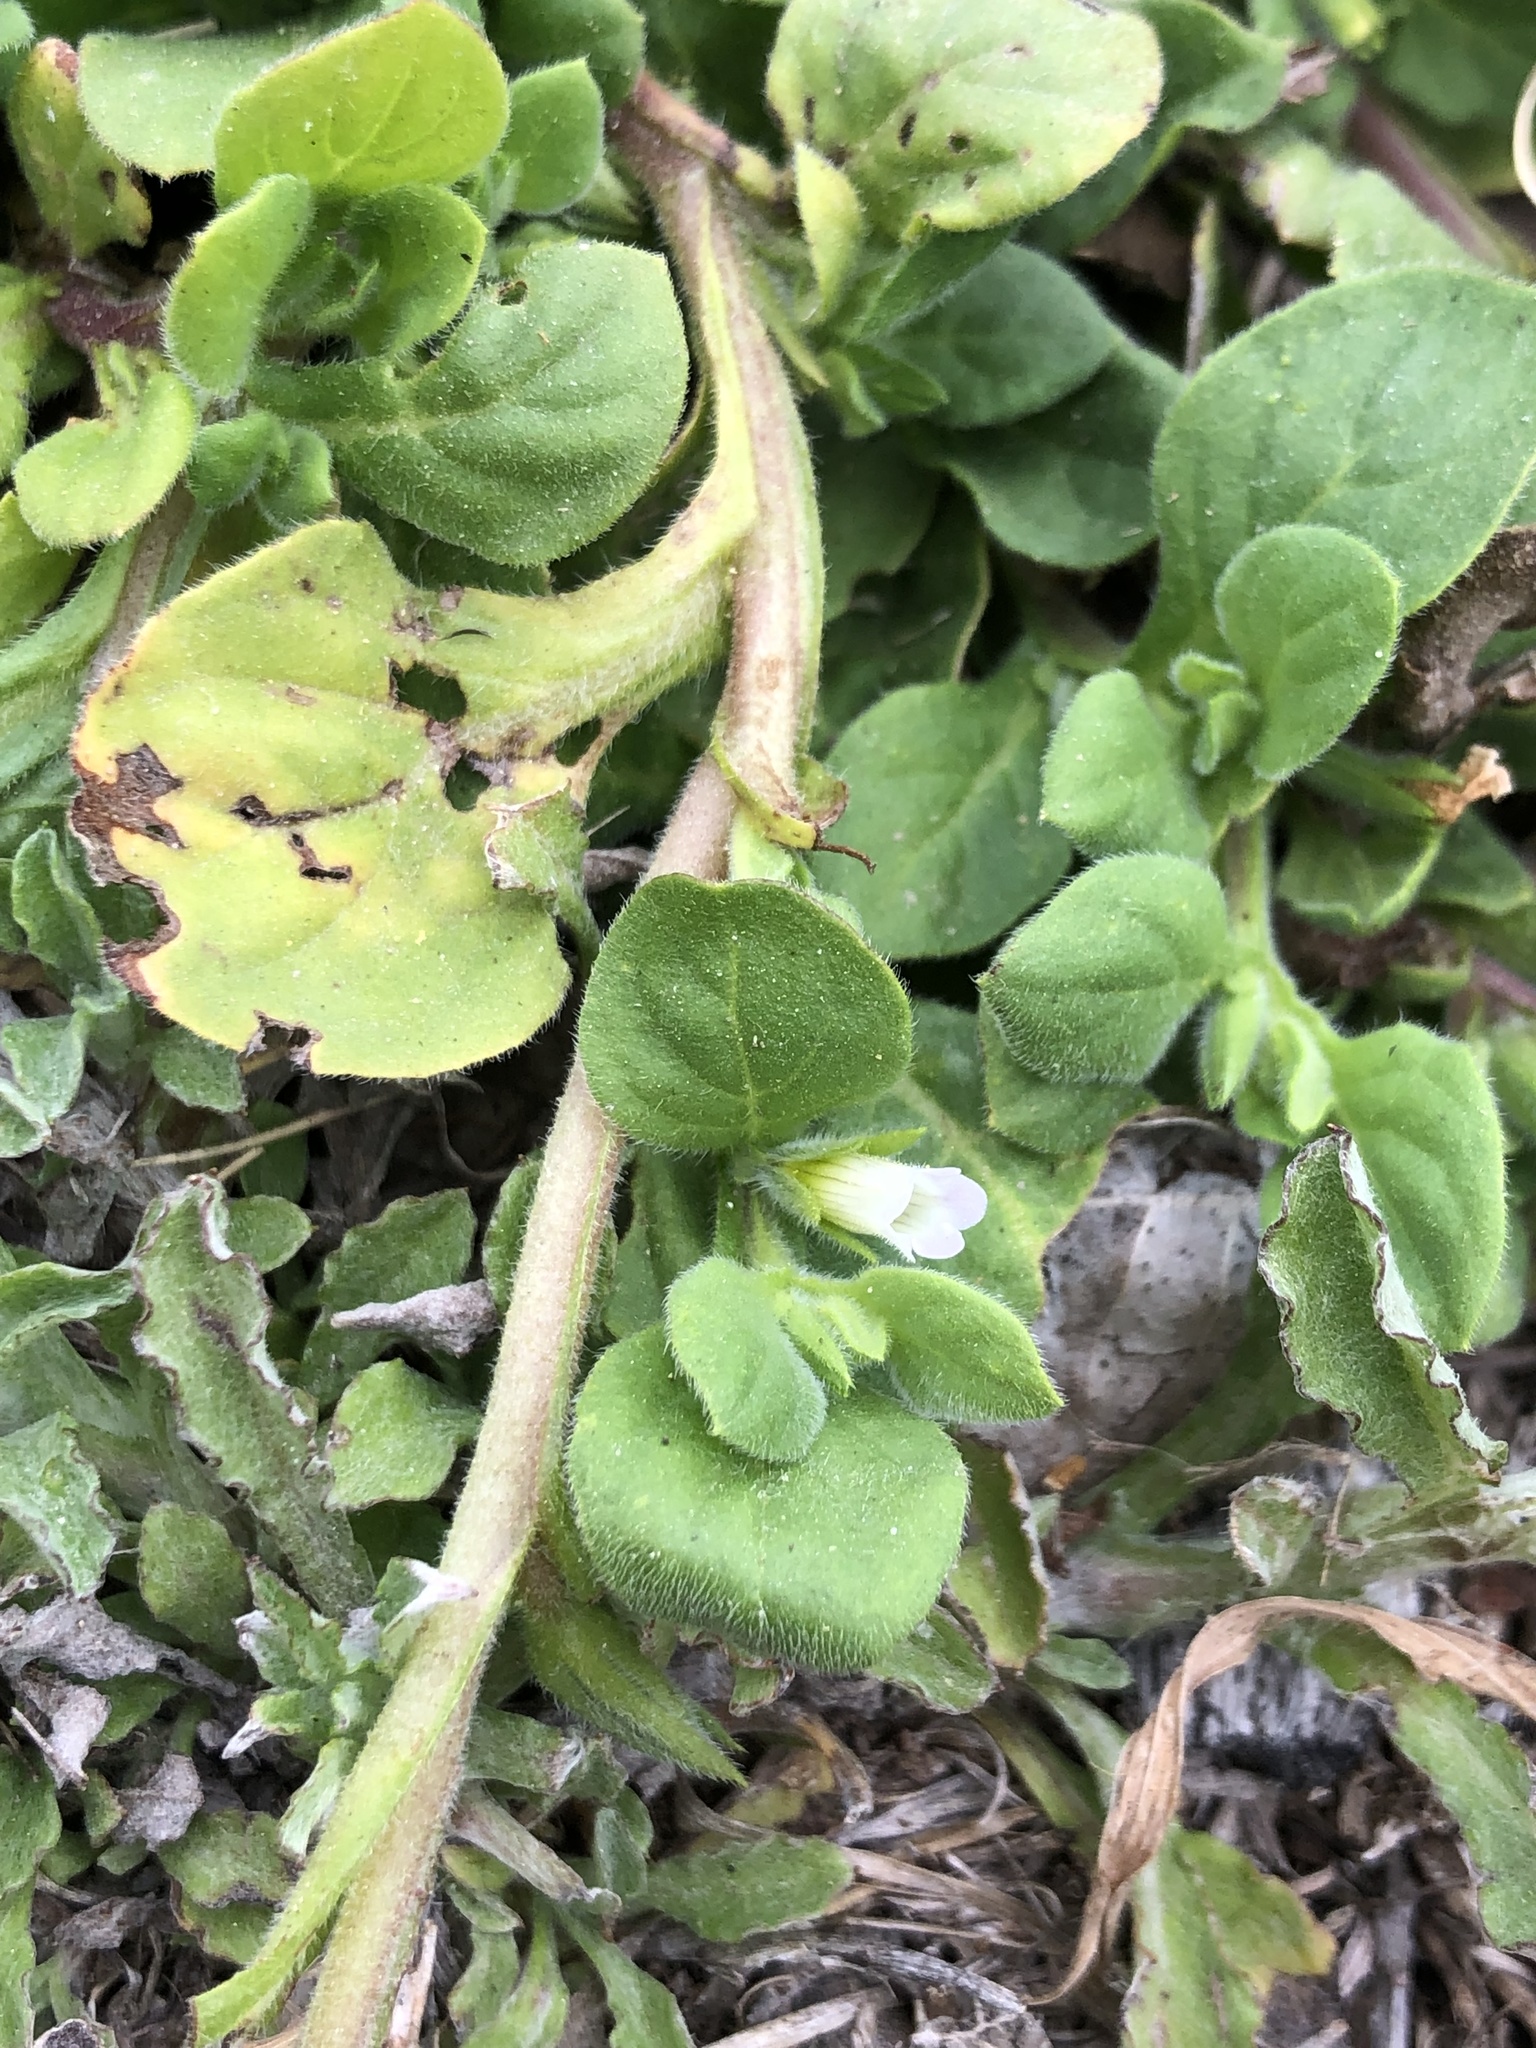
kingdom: Plantae
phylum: Tracheophyta
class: Magnoliopsida
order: Boraginales
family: Namaceae
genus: Nama
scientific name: Nama jamaicensis
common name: Jamaicanweed
